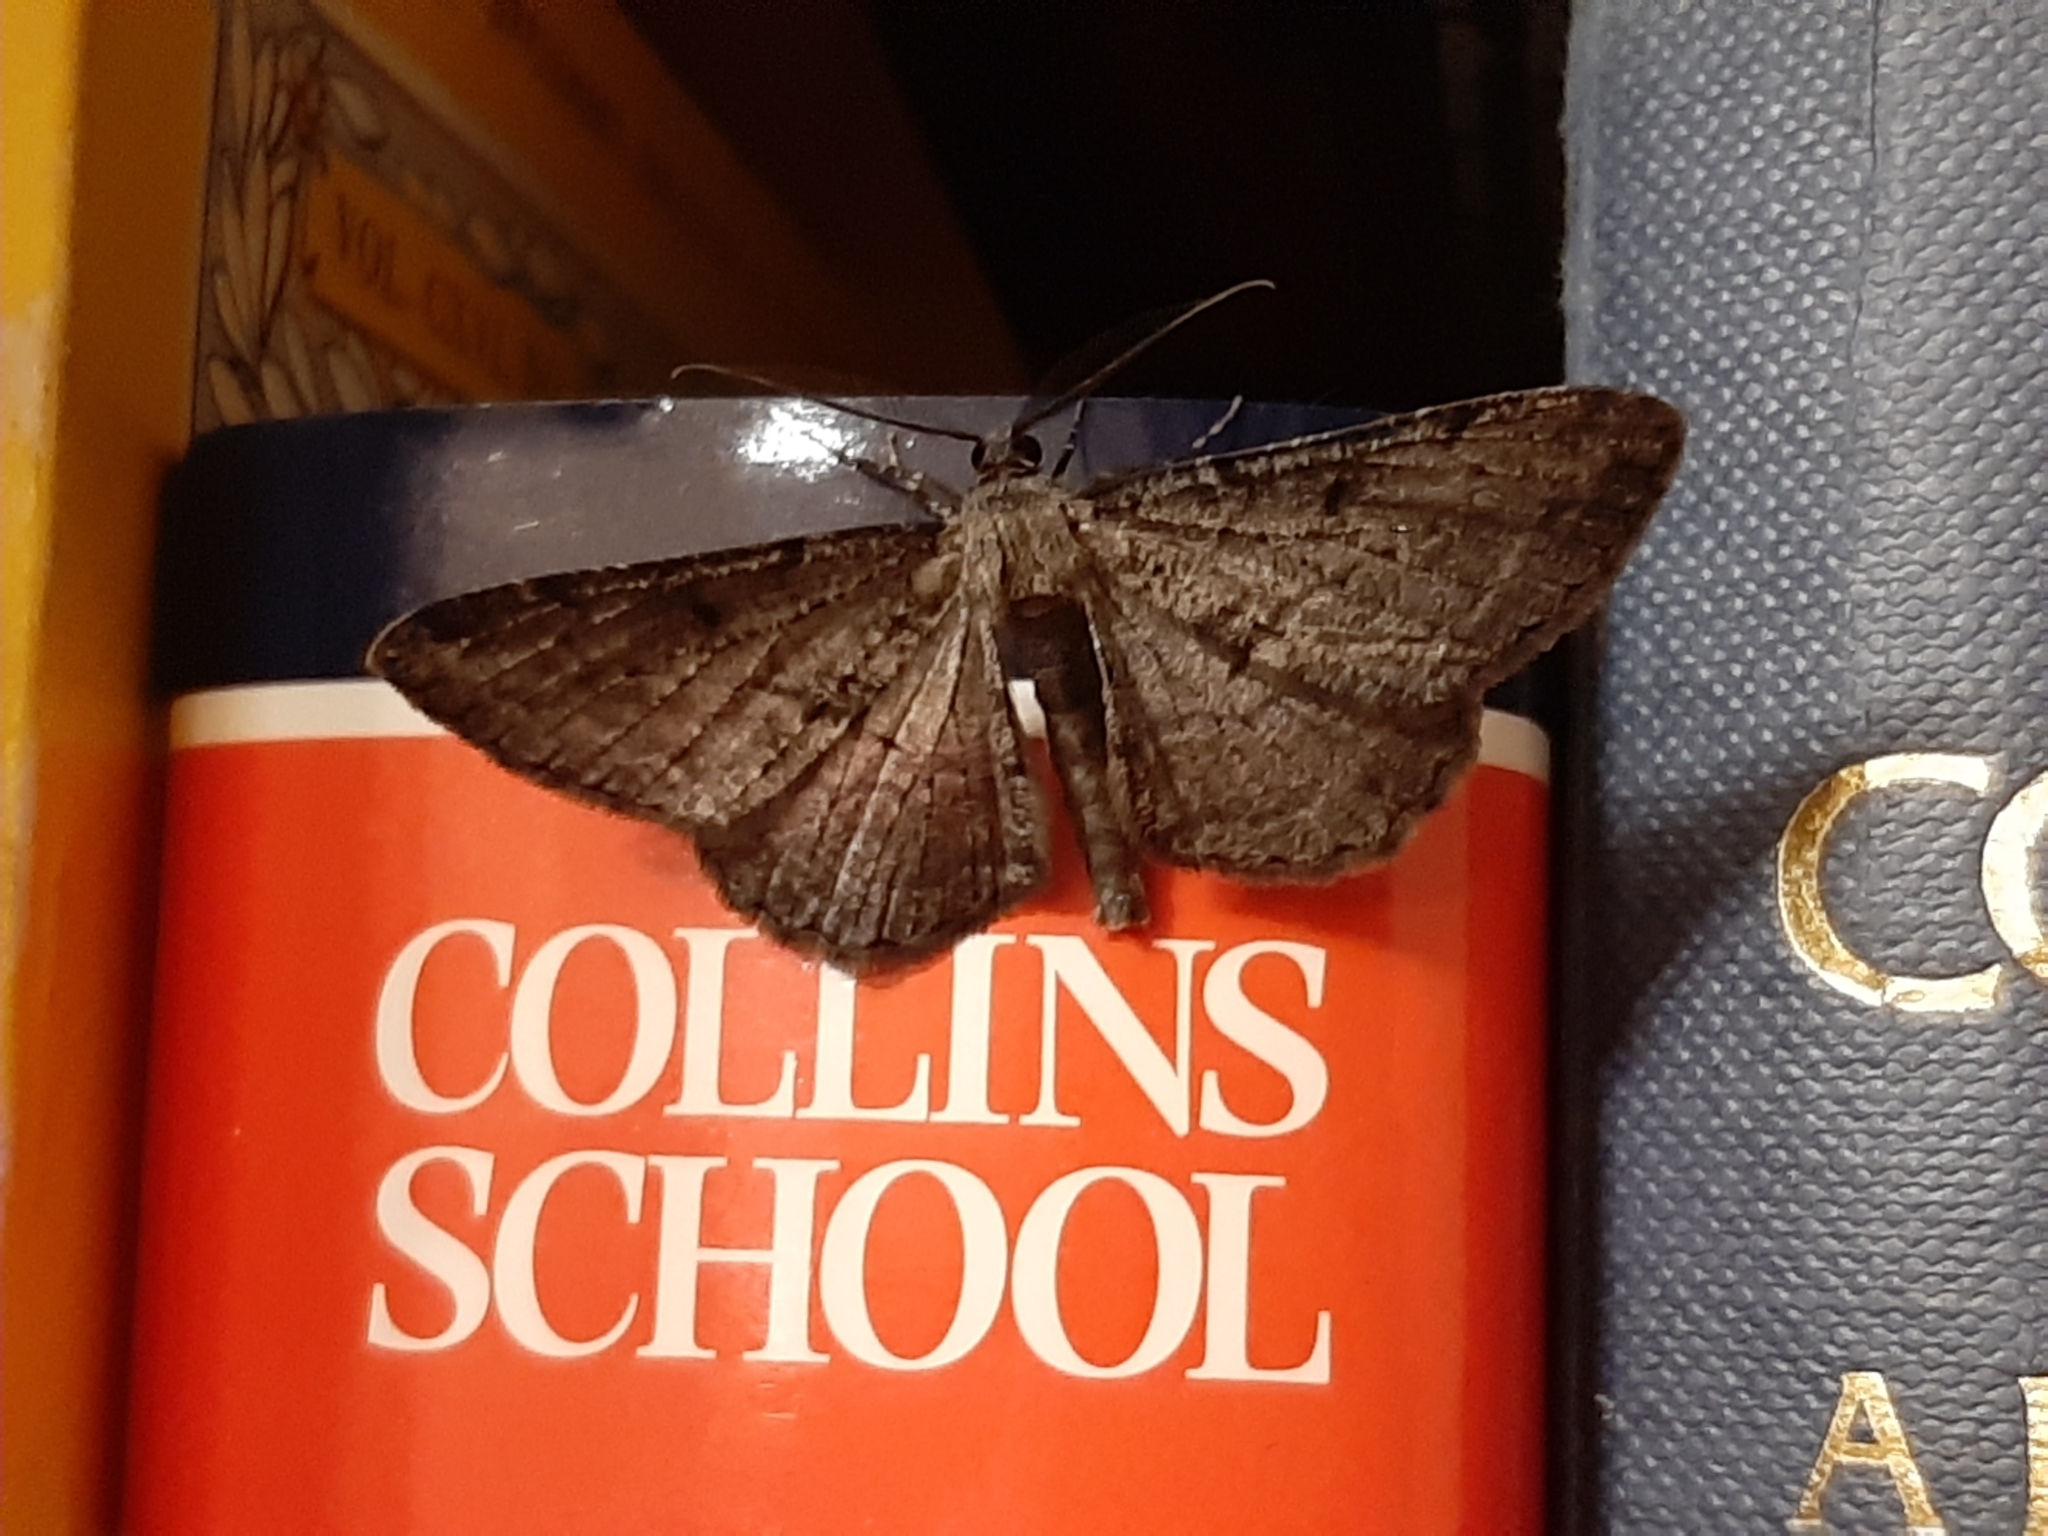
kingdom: Animalia
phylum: Arthropoda
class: Insecta
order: Lepidoptera
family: Geometridae
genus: Peribatodes
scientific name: Peribatodes rhomboidaria
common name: Willow beauty
